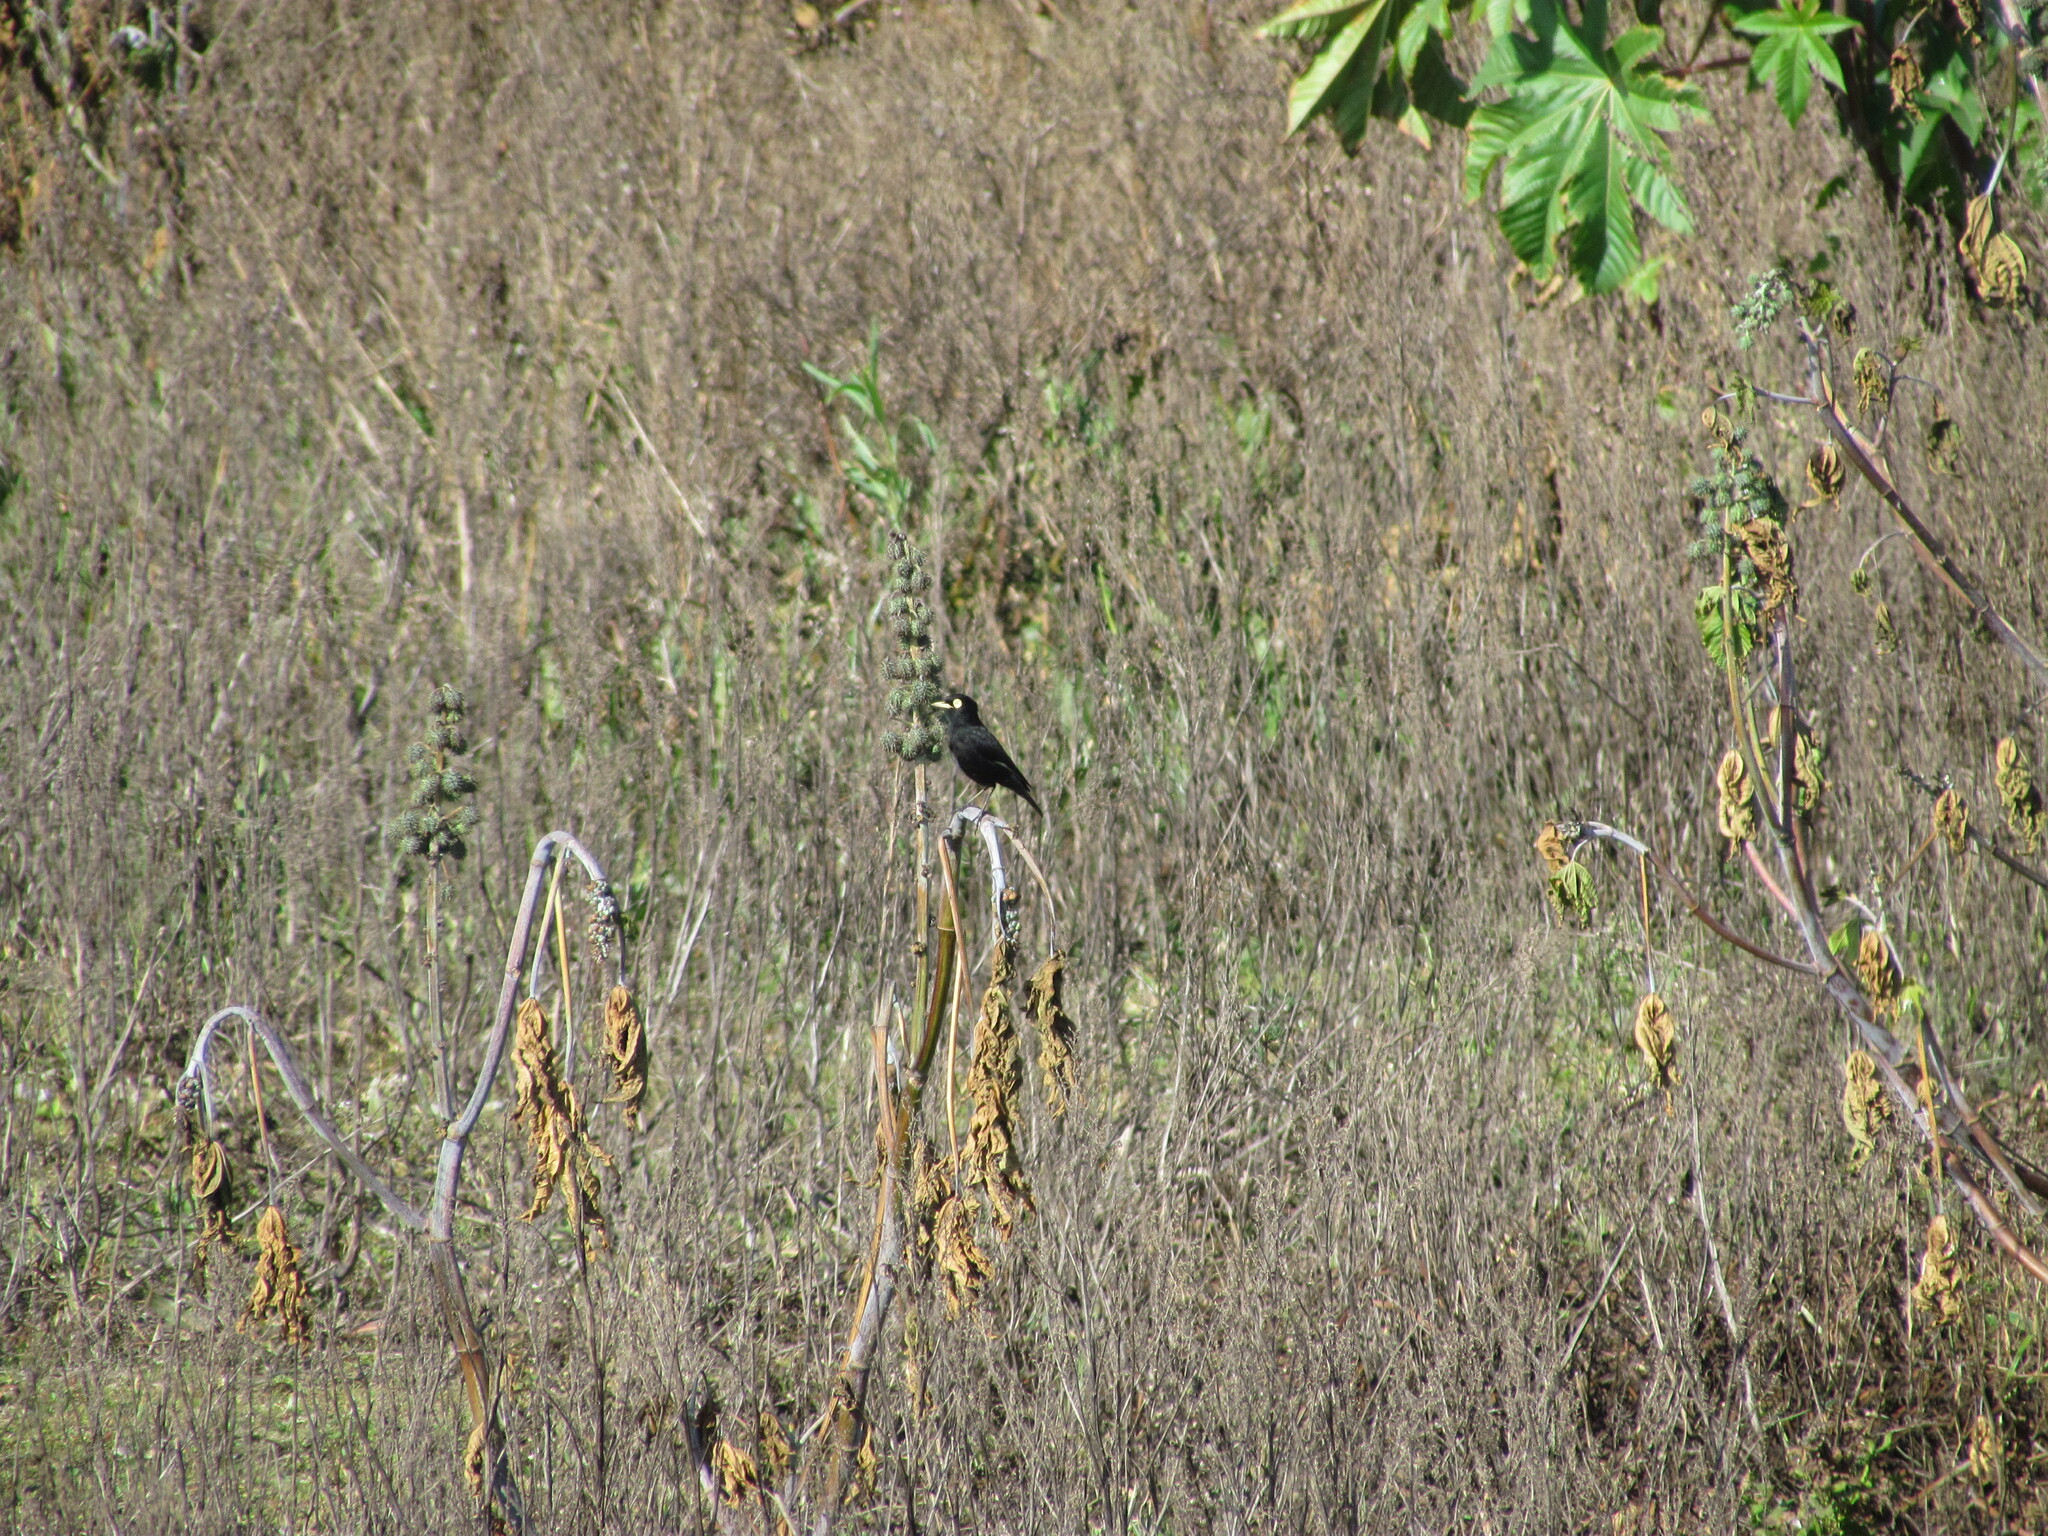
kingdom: Animalia
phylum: Chordata
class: Aves
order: Passeriformes
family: Tyrannidae
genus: Hymenops
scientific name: Hymenops perspicillatus
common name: Spectacled tyrant
